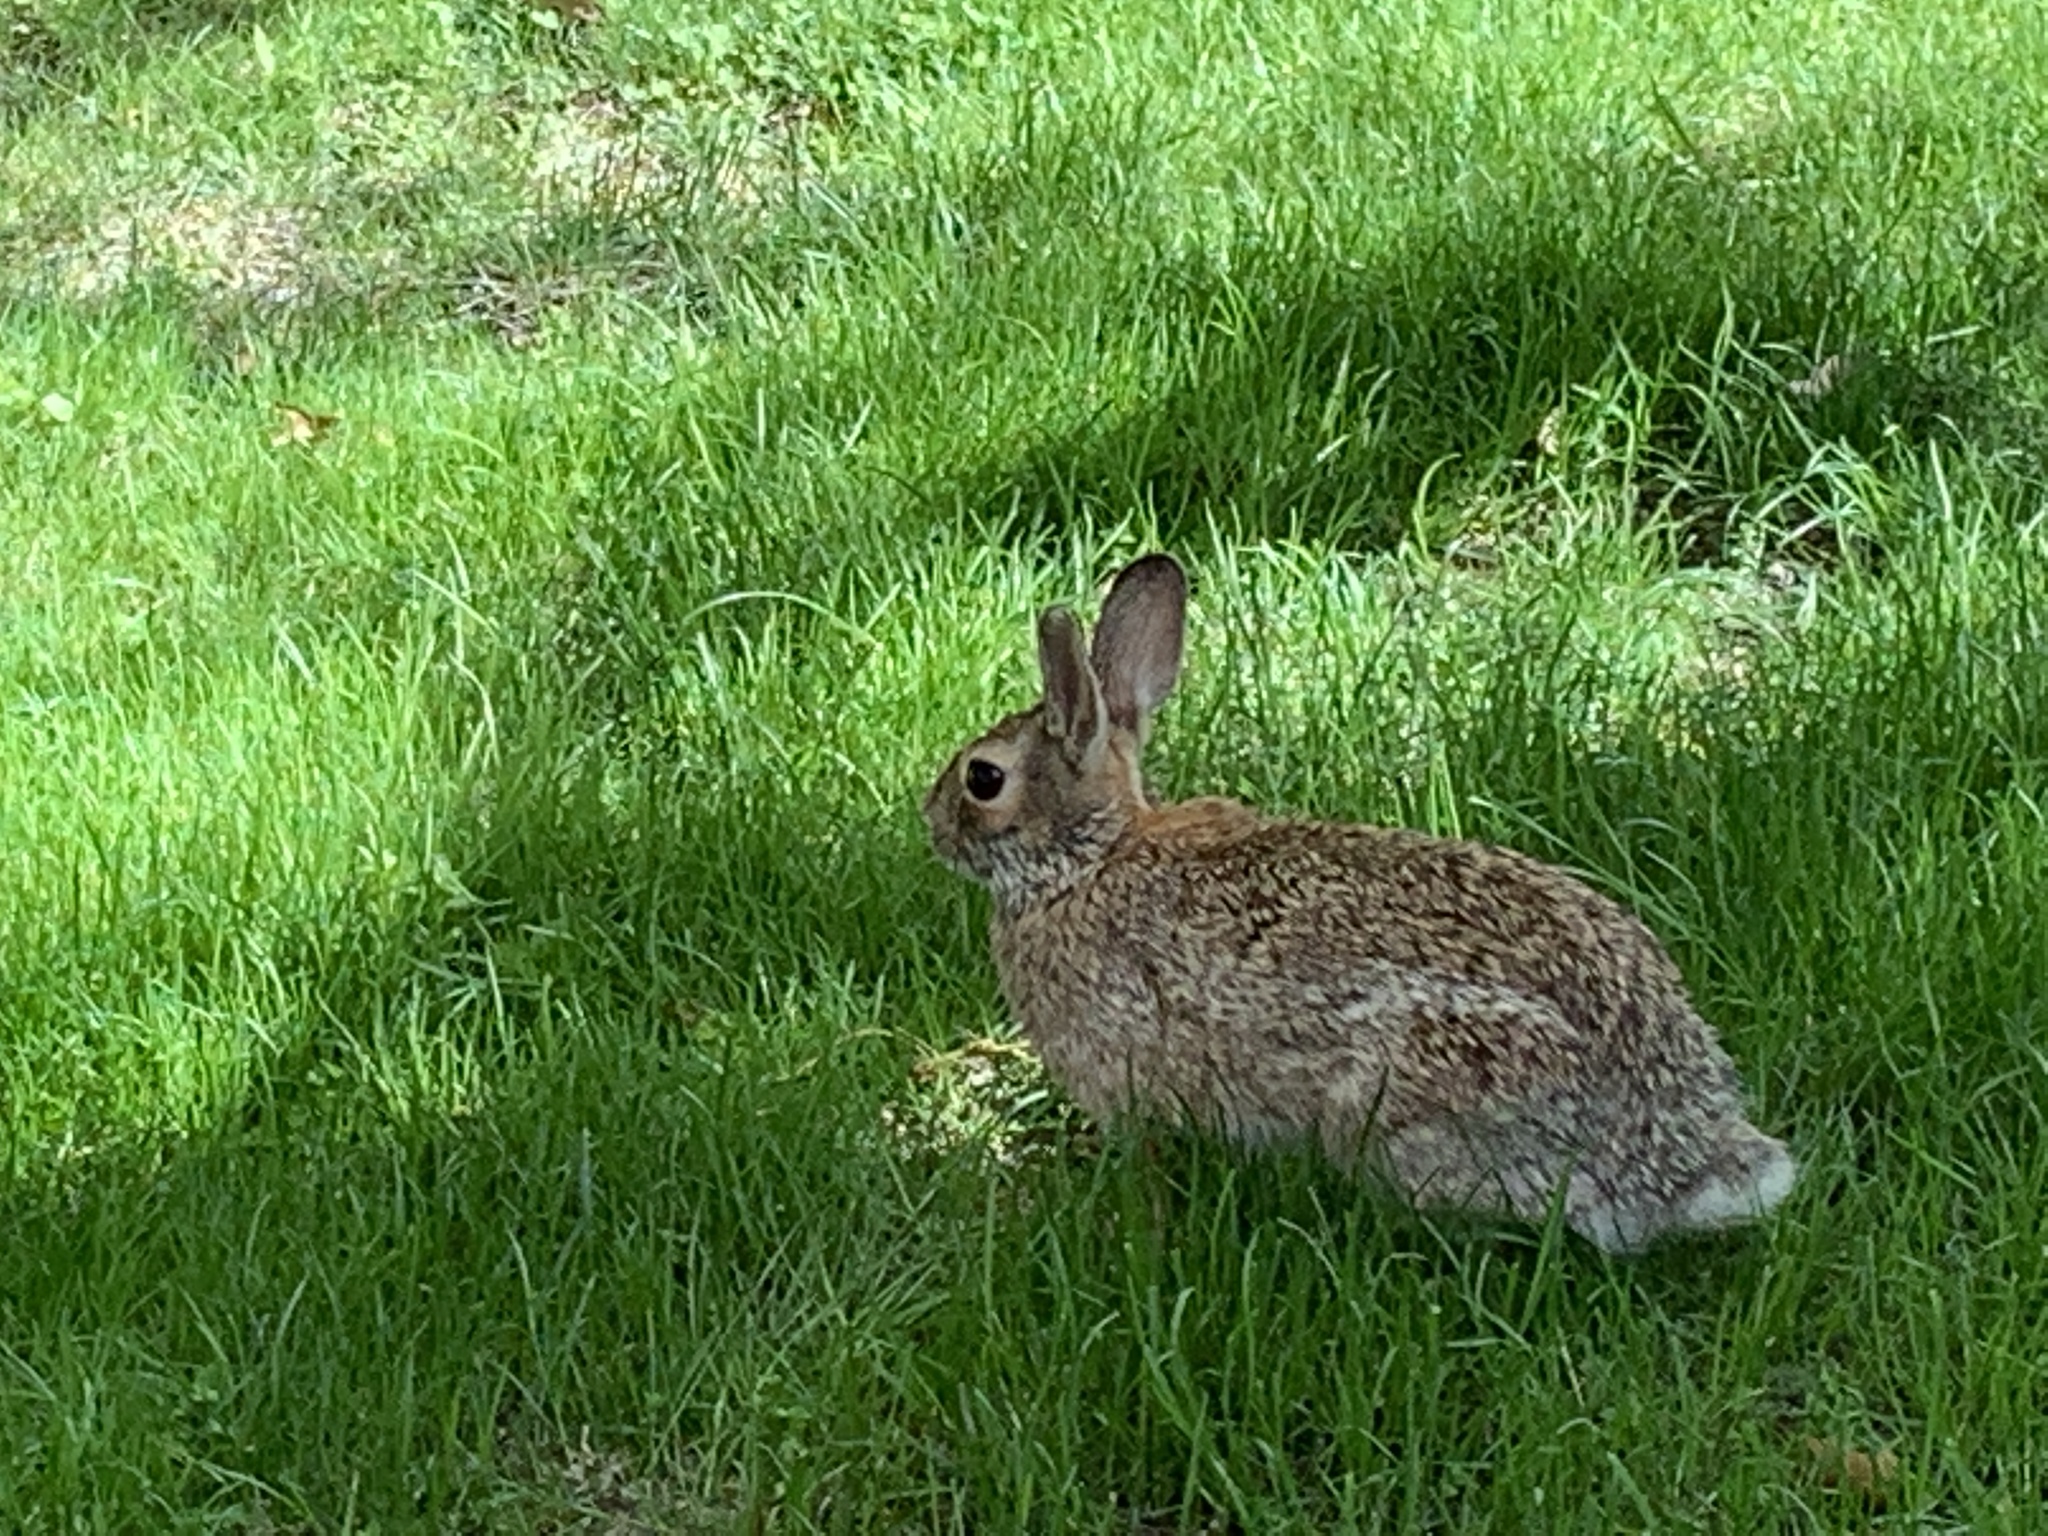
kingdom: Animalia
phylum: Chordata
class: Mammalia
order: Lagomorpha
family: Leporidae
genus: Sylvilagus
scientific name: Sylvilagus floridanus
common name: Eastern cottontail
